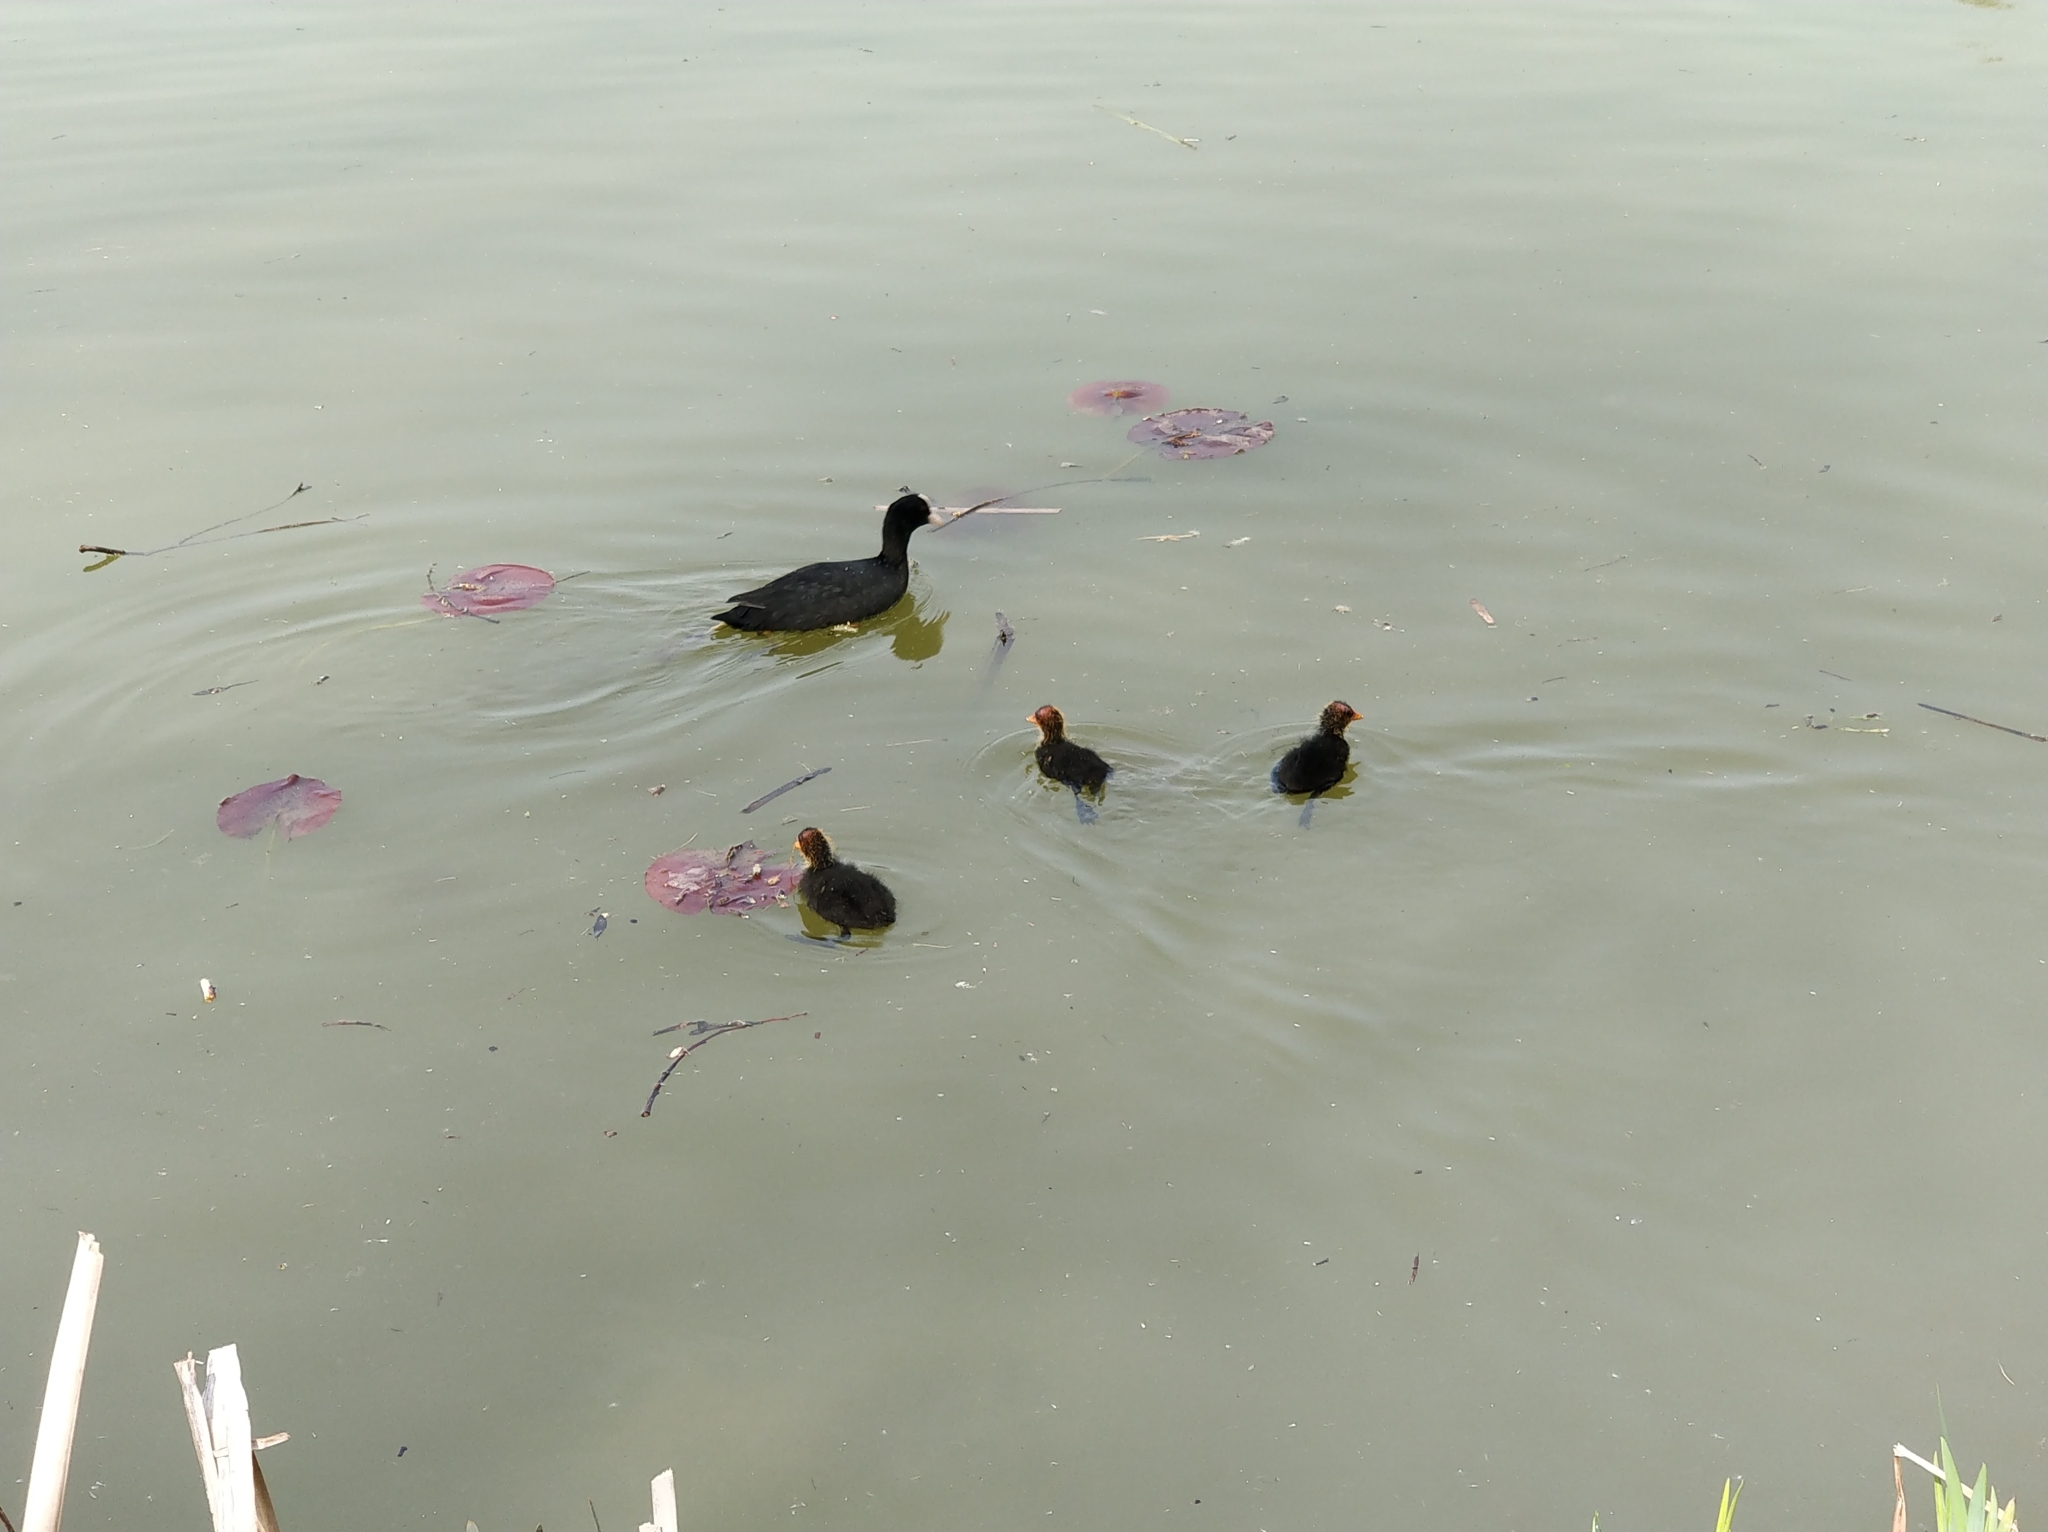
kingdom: Animalia
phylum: Chordata
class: Aves
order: Gruiformes
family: Rallidae
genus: Fulica
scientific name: Fulica atra
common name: Eurasian coot
